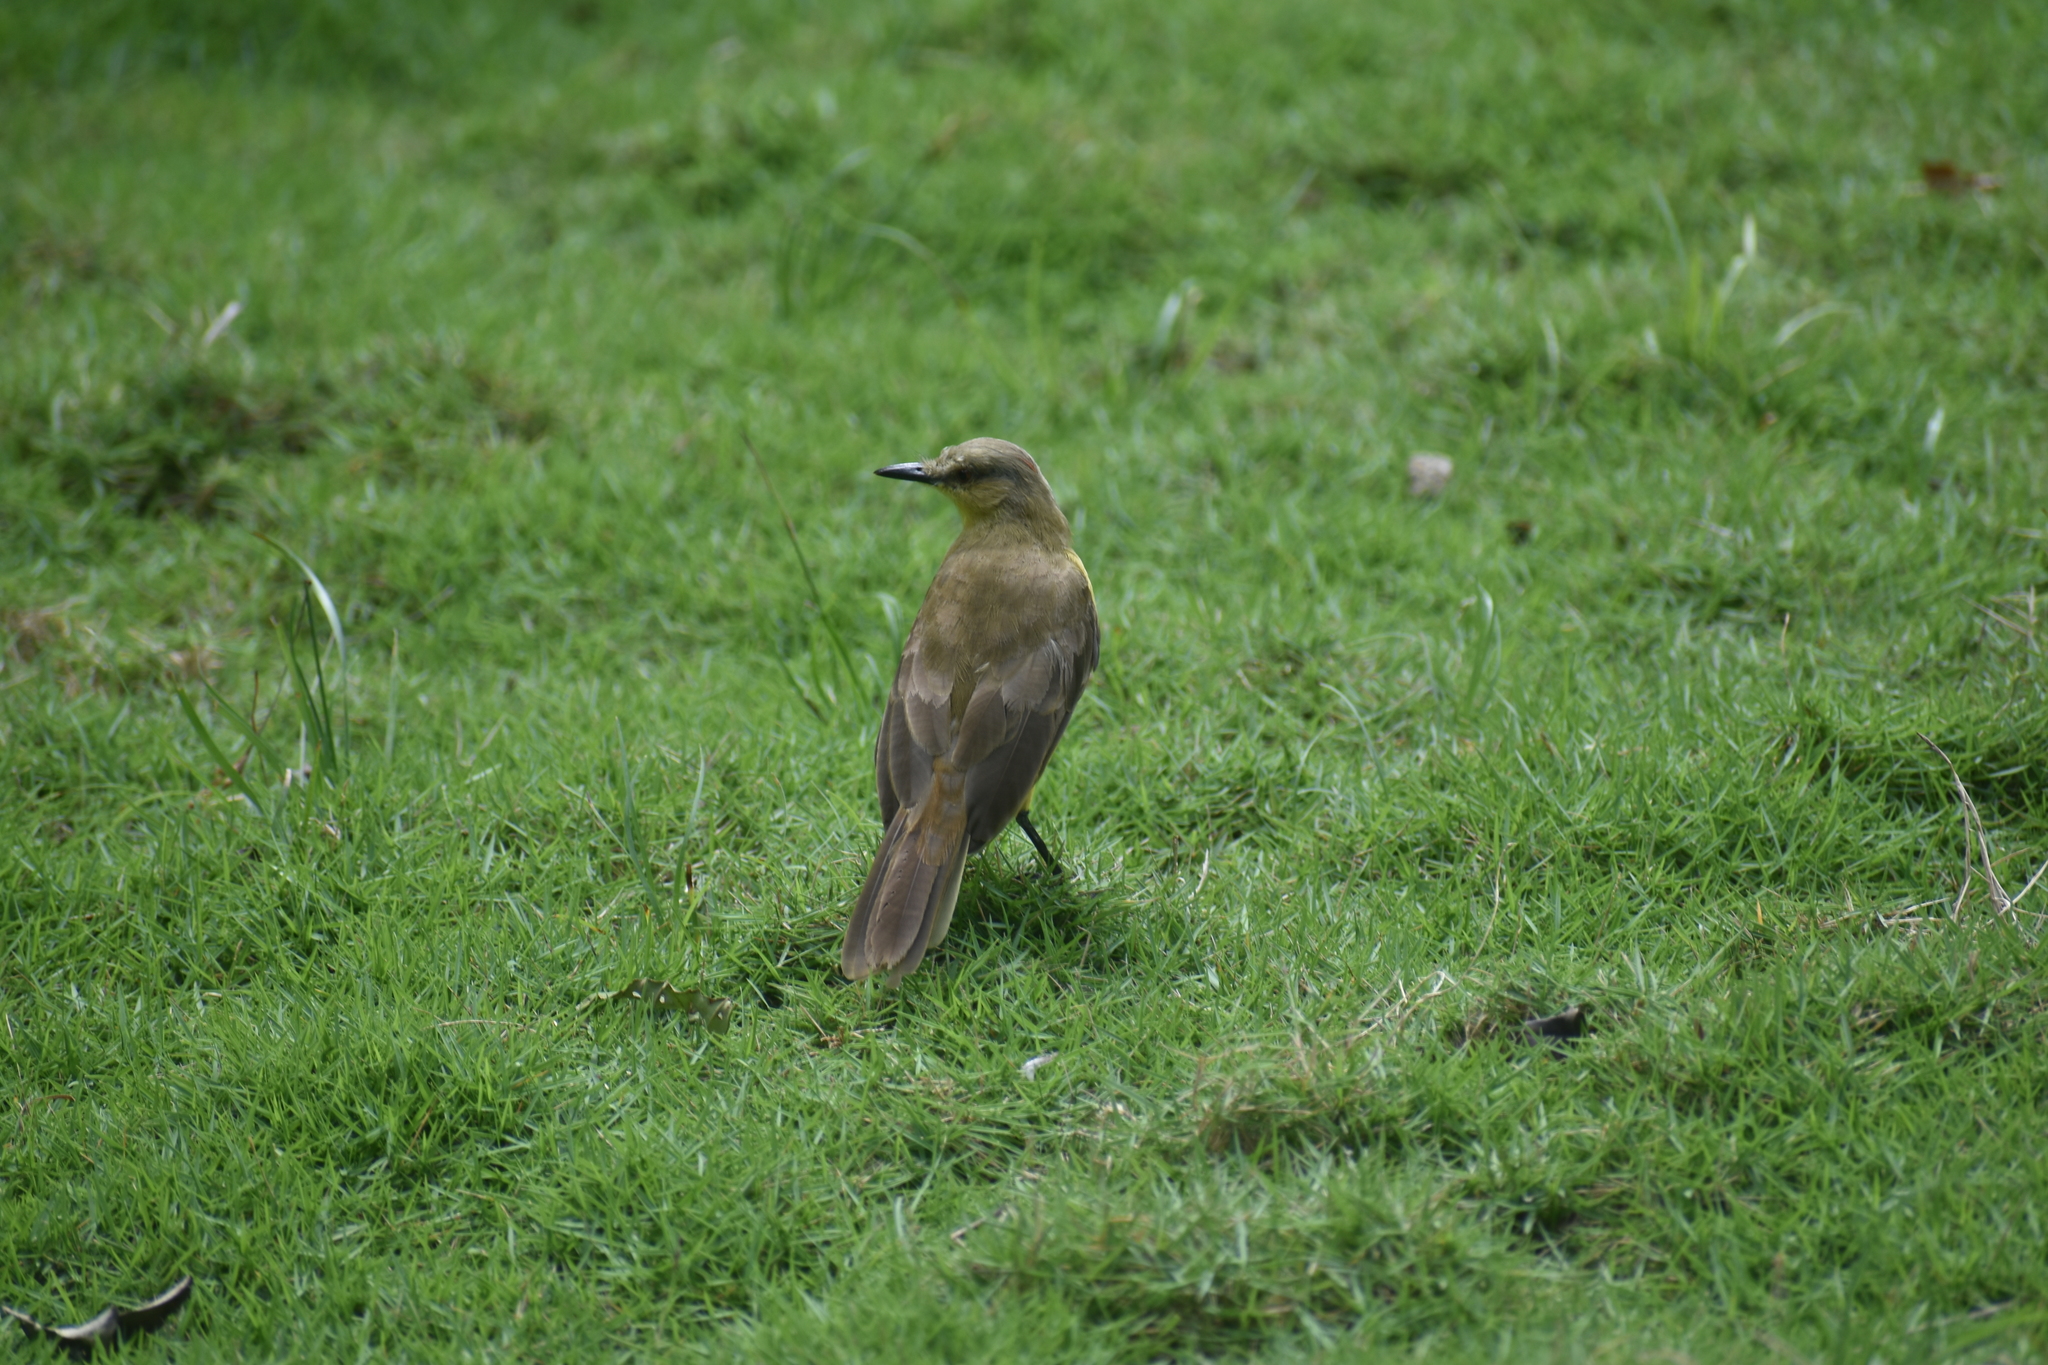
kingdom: Animalia
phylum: Chordata
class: Aves
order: Passeriformes
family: Tyrannidae
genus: Machetornis
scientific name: Machetornis rixosa
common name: Cattle tyrant
